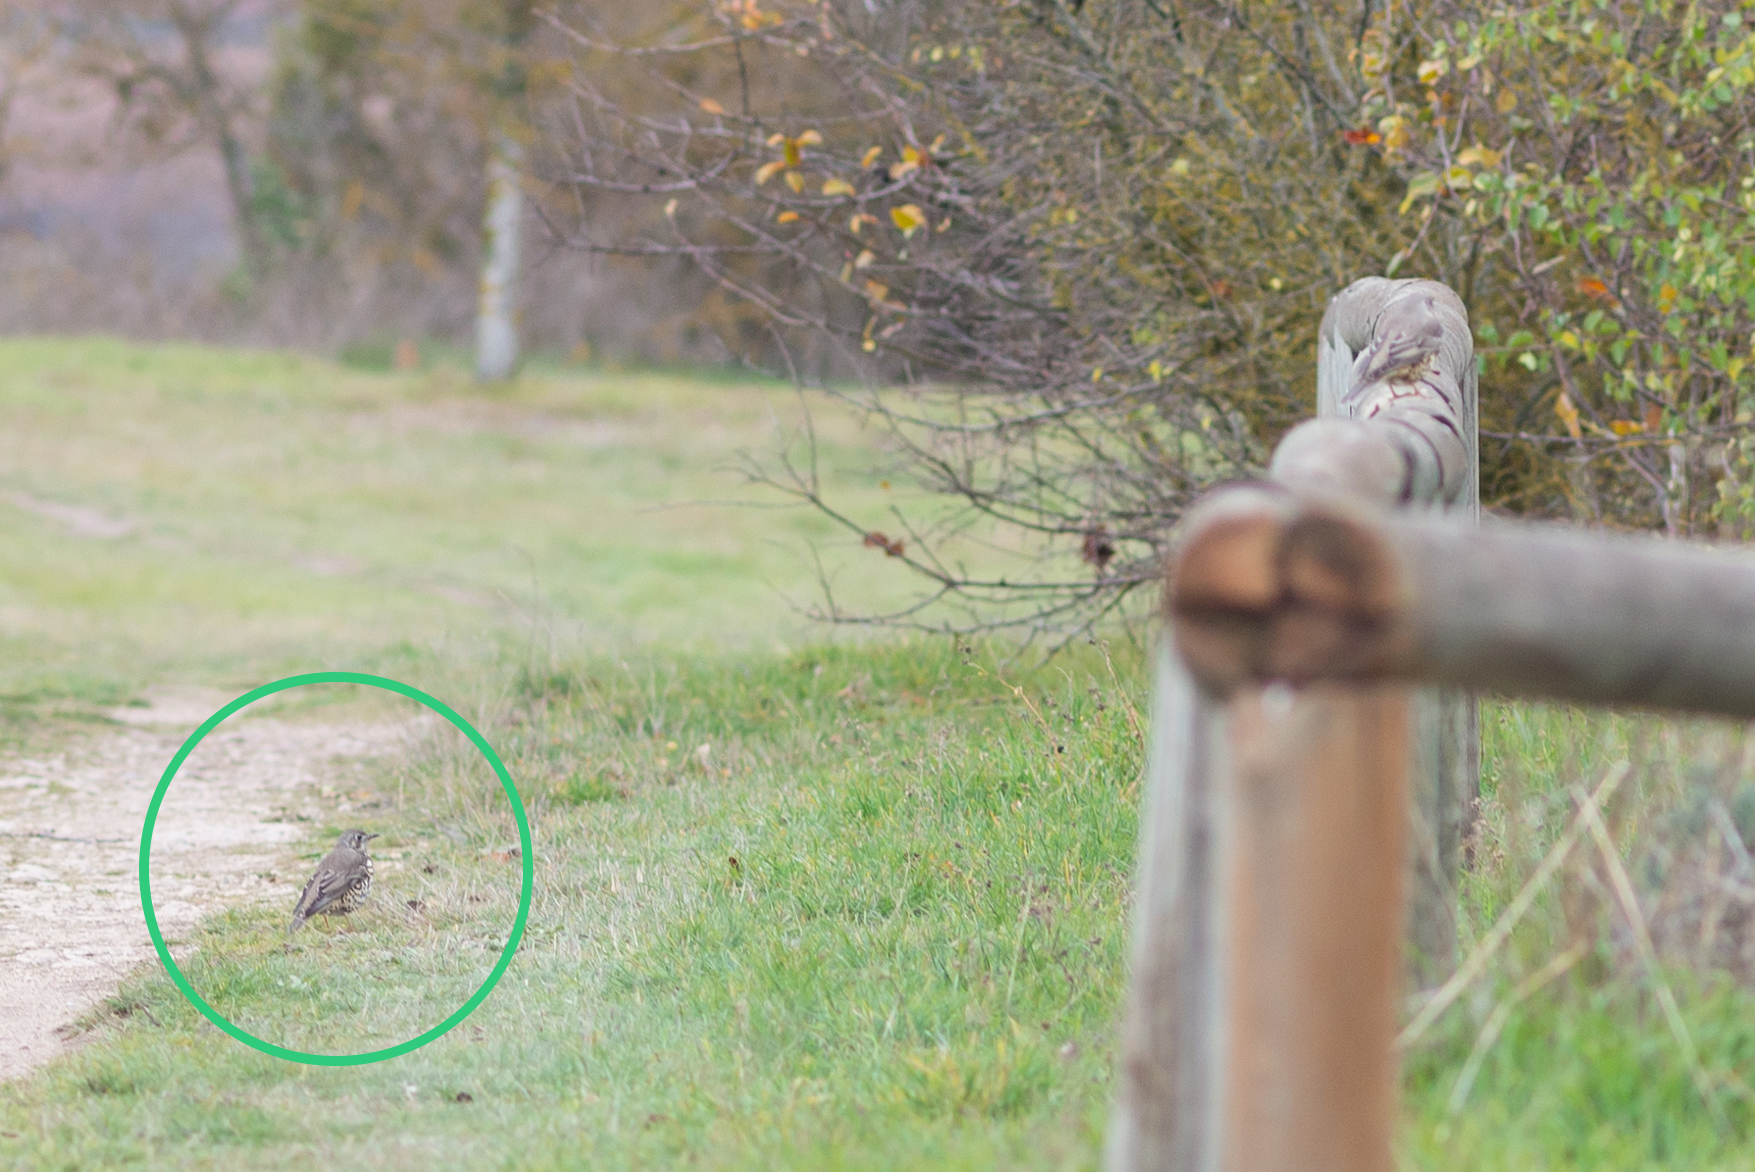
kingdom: Animalia
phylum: Chordata
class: Aves
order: Passeriformes
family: Turdidae
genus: Turdus
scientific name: Turdus viscivorus
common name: Mistle thrush
